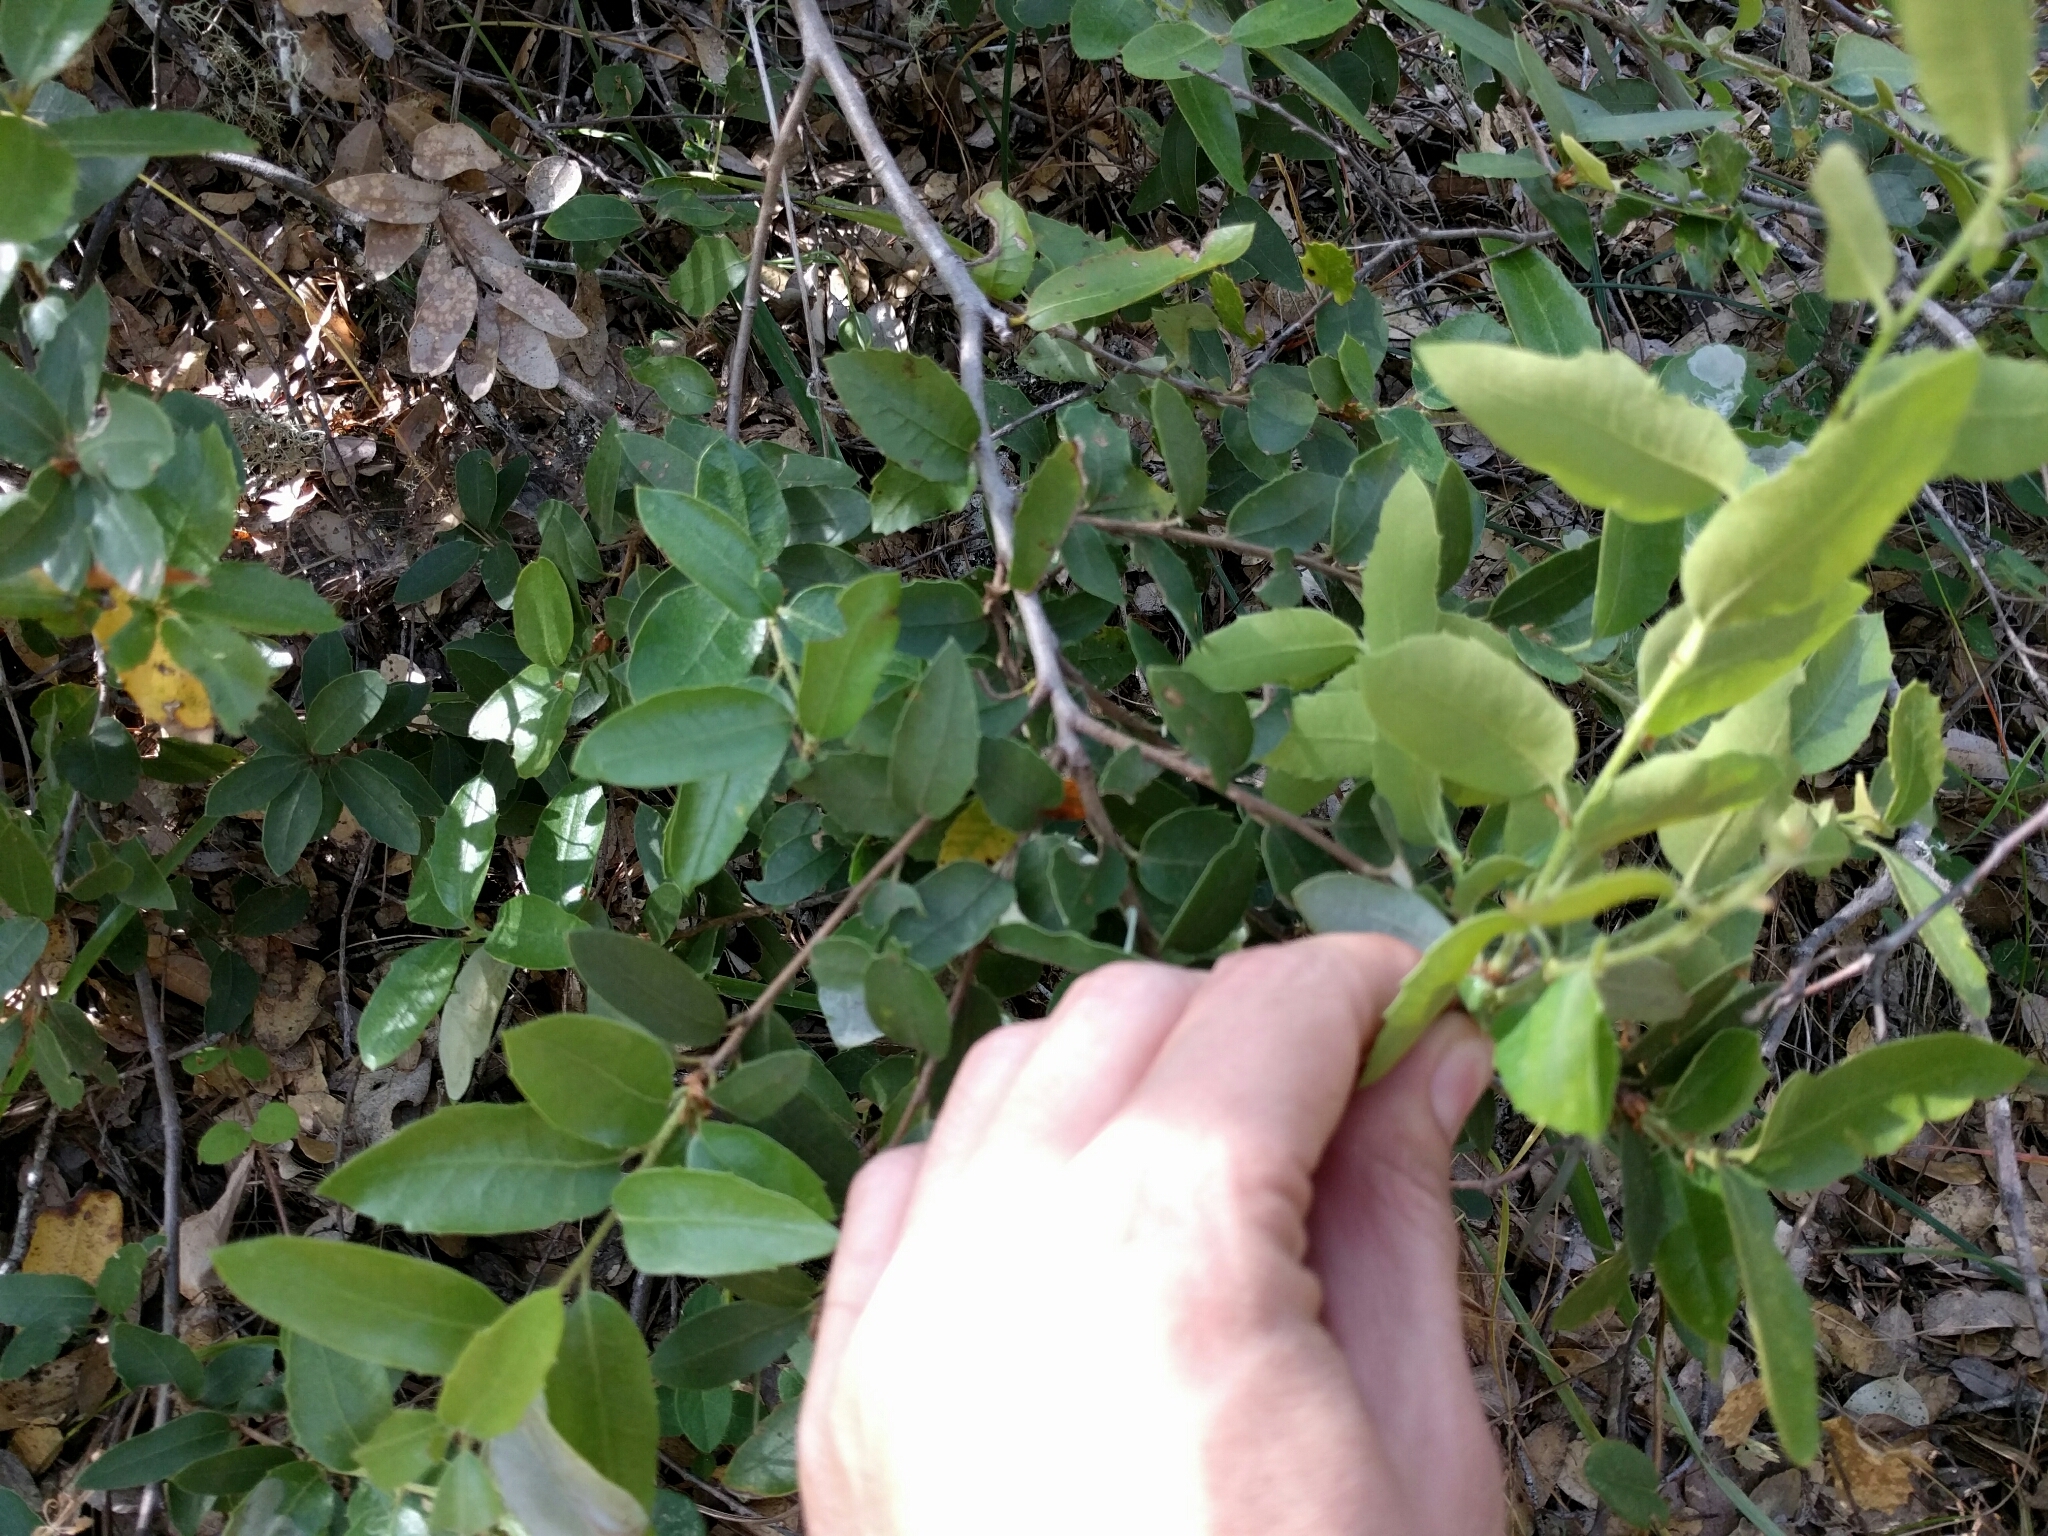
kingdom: Plantae
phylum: Tracheophyta
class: Magnoliopsida
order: Fagales
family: Fagaceae
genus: Quercus
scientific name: Quercus chrysolepis
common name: Canyon live oak
